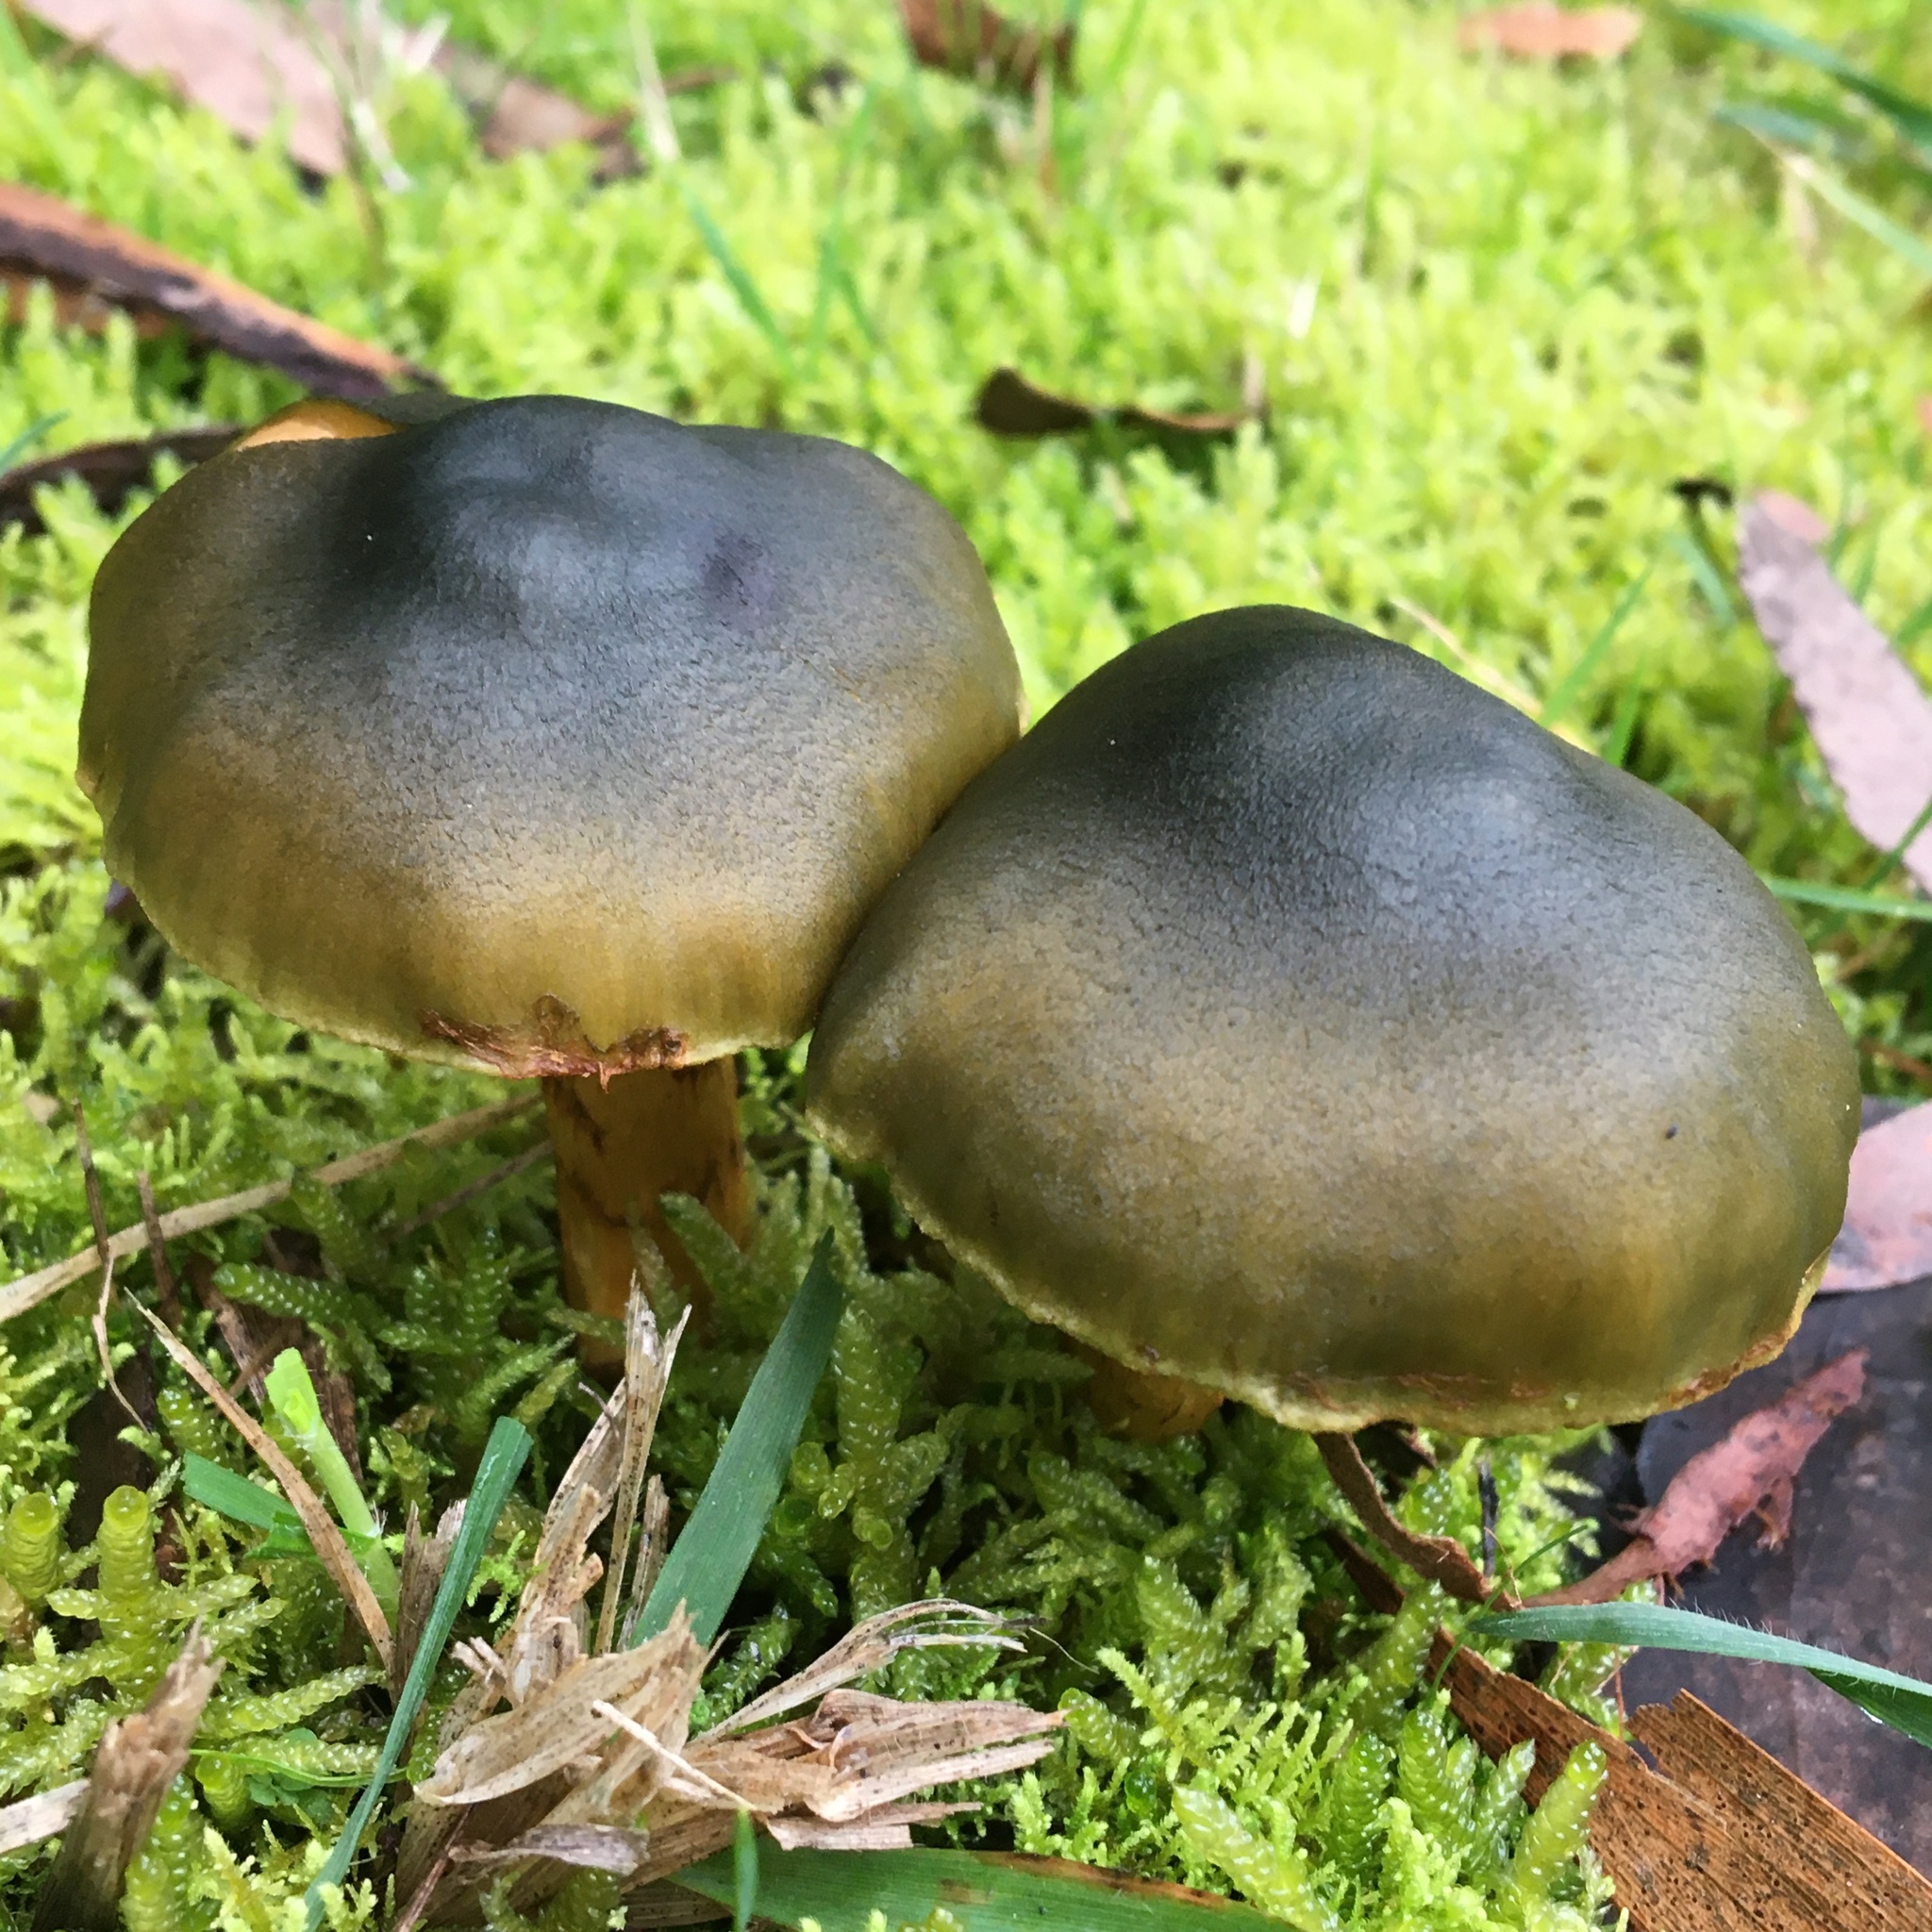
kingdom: Fungi
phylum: Basidiomycota
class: Agaricomycetes
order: Agaricales
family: Cortinariaceae
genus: Cortinarius
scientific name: Cortinarius austrovenetus
